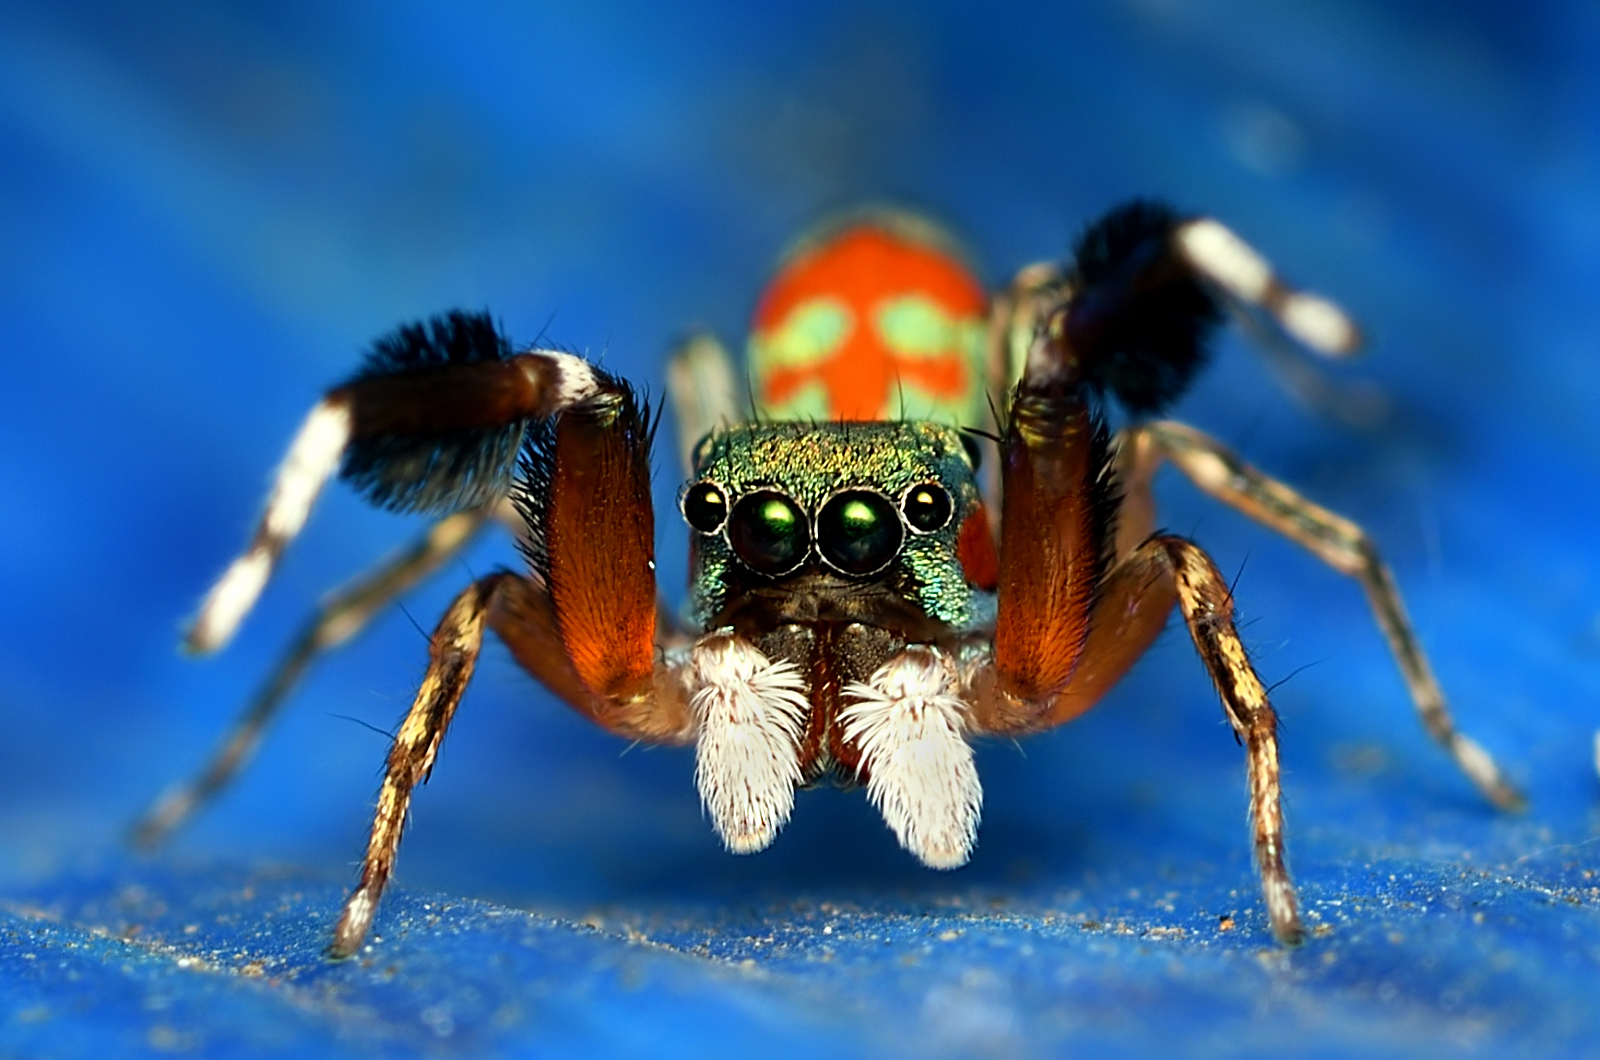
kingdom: Animalia
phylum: Arthropoda
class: Arachnida
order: Araneae
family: Salticidae
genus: Siler
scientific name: Siler semiglaucus
